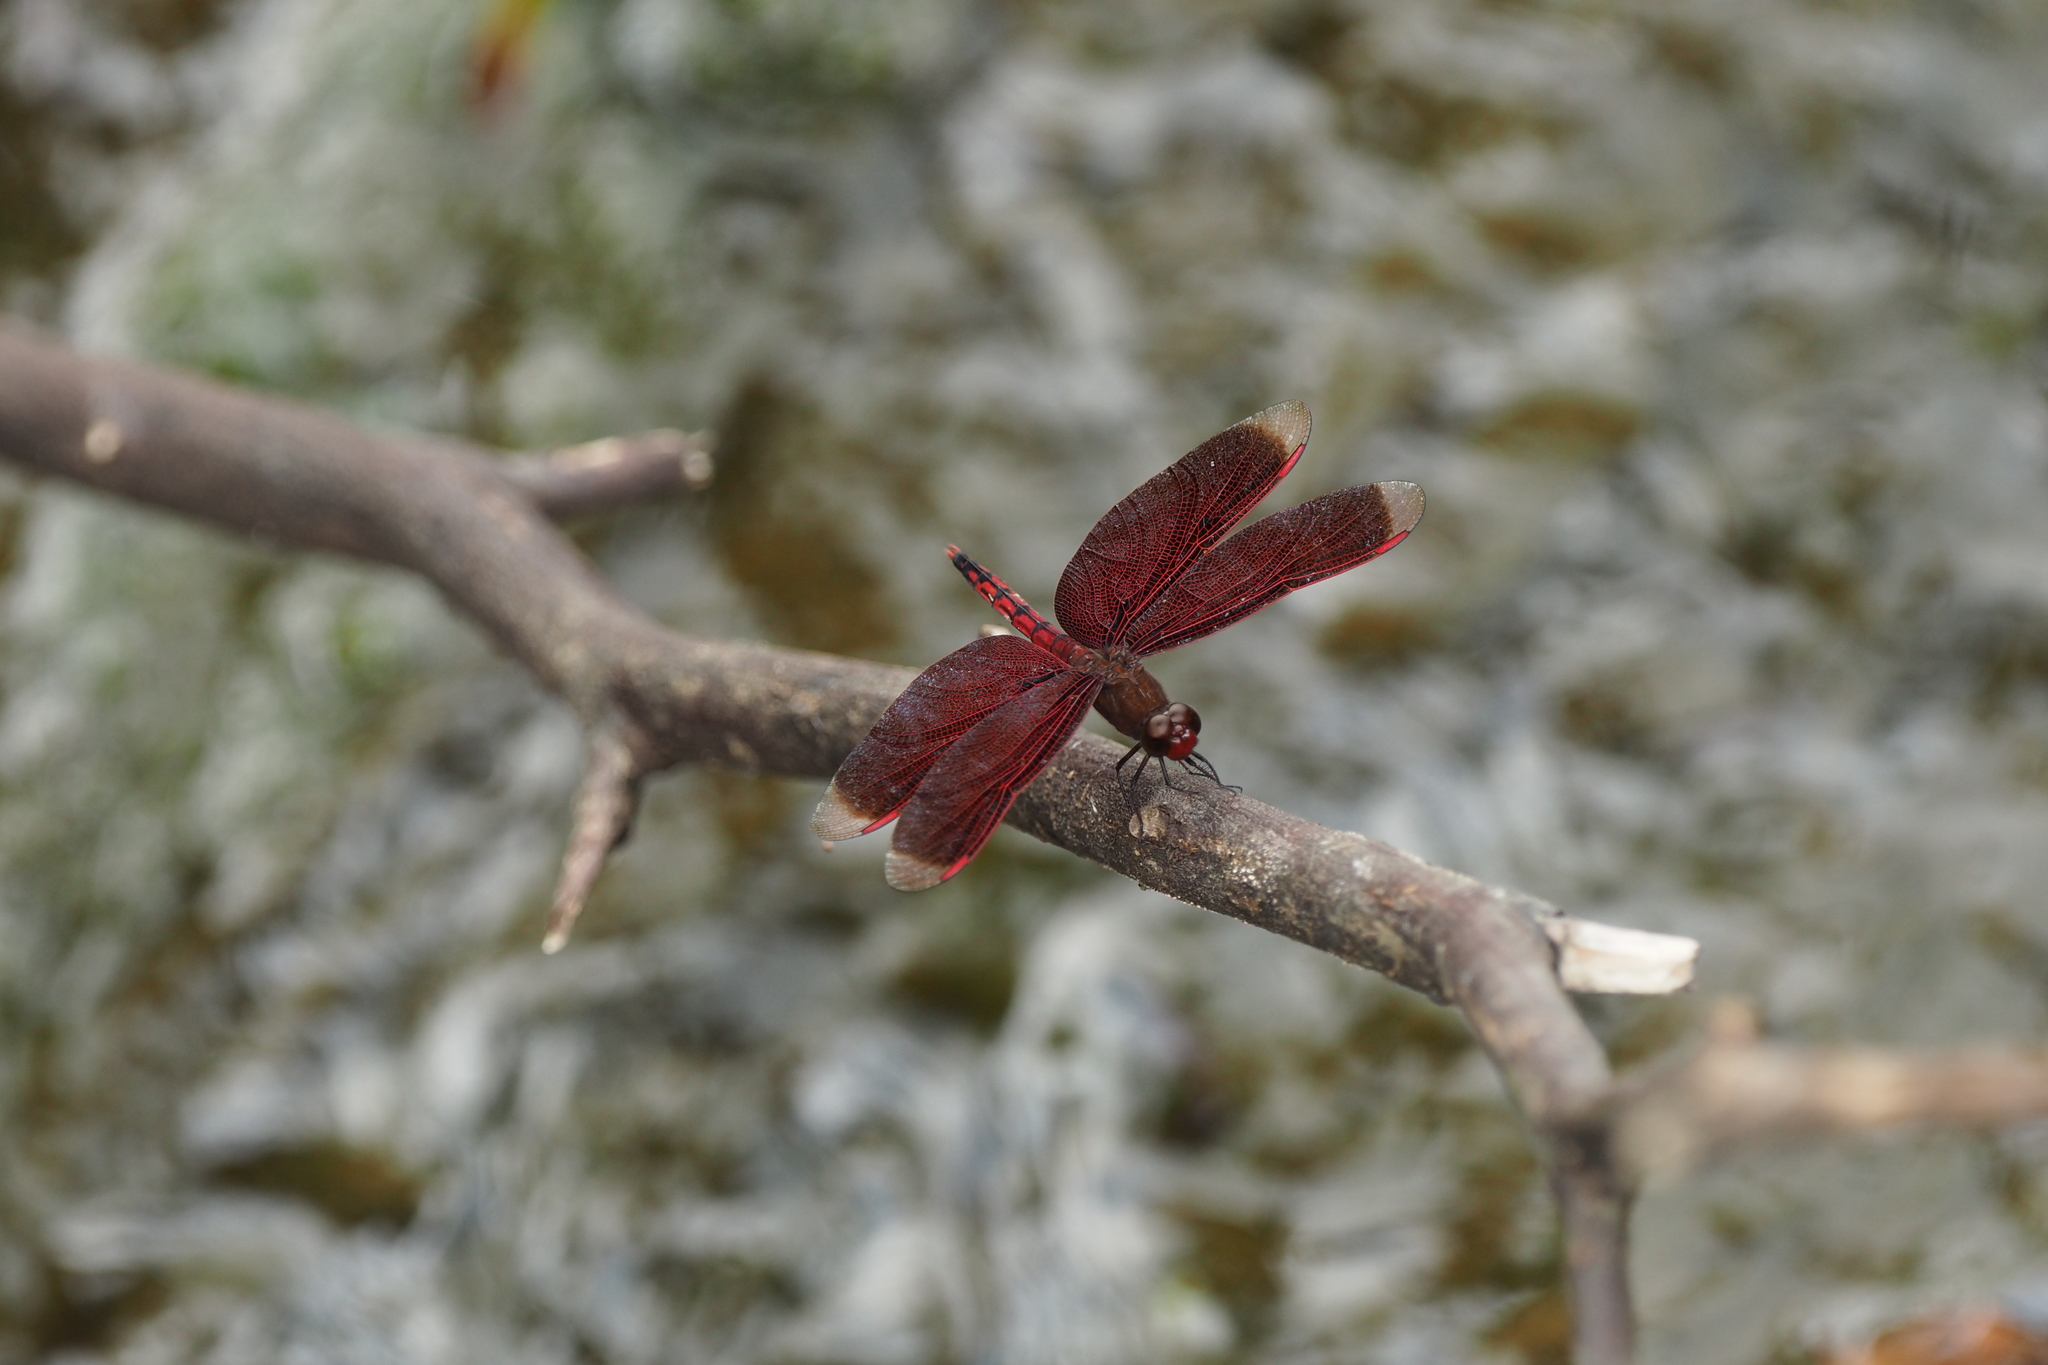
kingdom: Animalia
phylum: Arthropoda
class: Insecta
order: Odonata
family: Libellulidae
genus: Neurothemis
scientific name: Neurothemis taiwanensis
